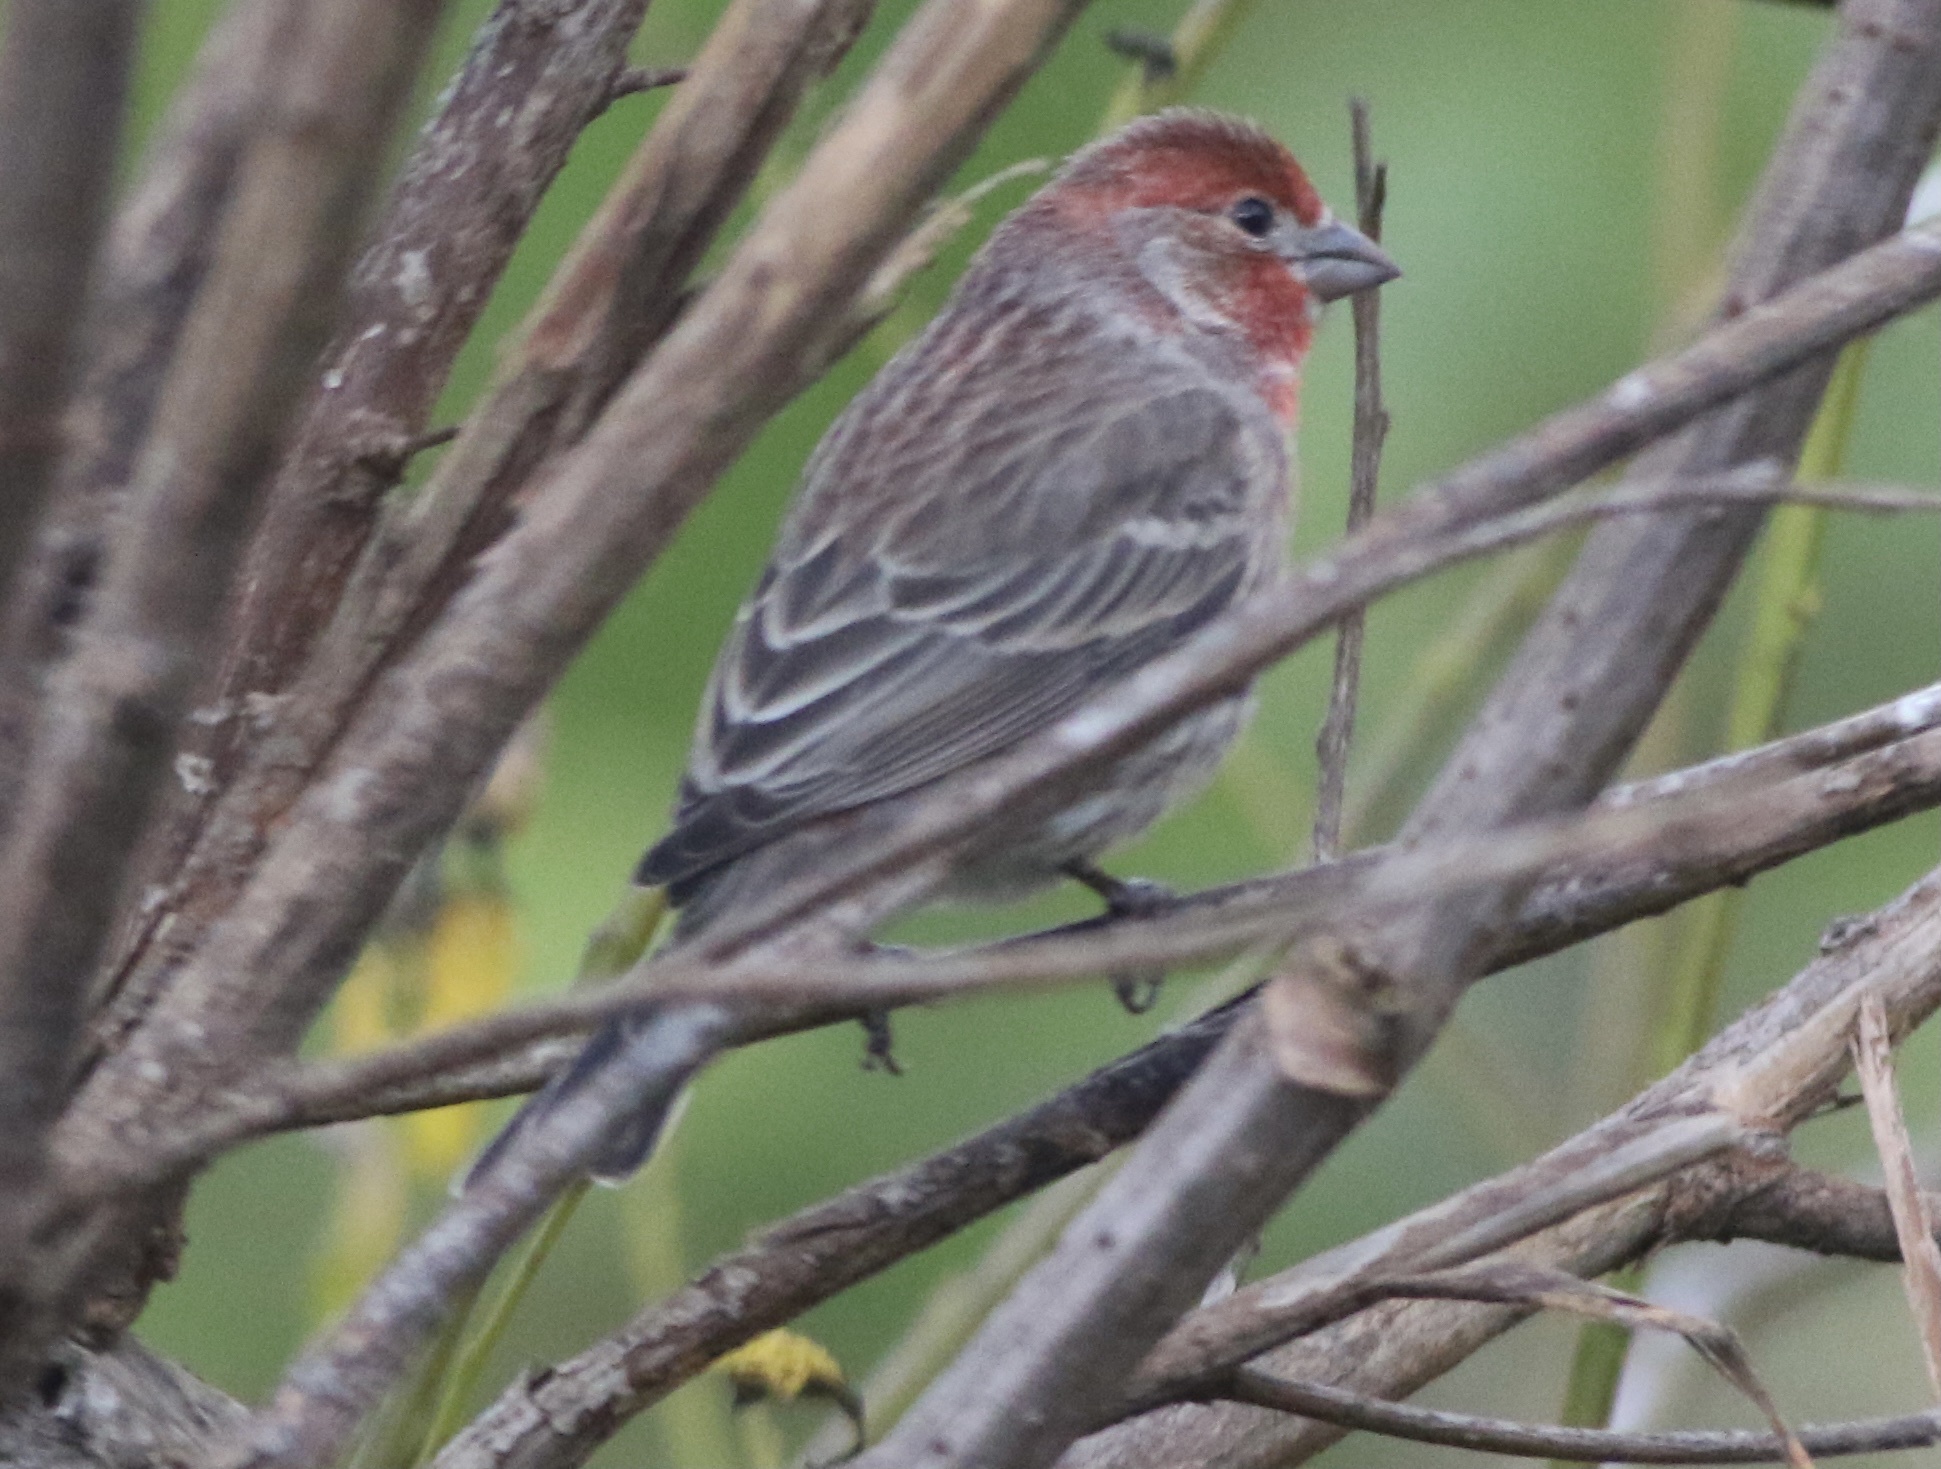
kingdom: Animalia
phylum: Chordata
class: Aves
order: Passeriformes
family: Fringillidae
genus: Haemorhous
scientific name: Haemorhous mexicanus
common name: House finch
